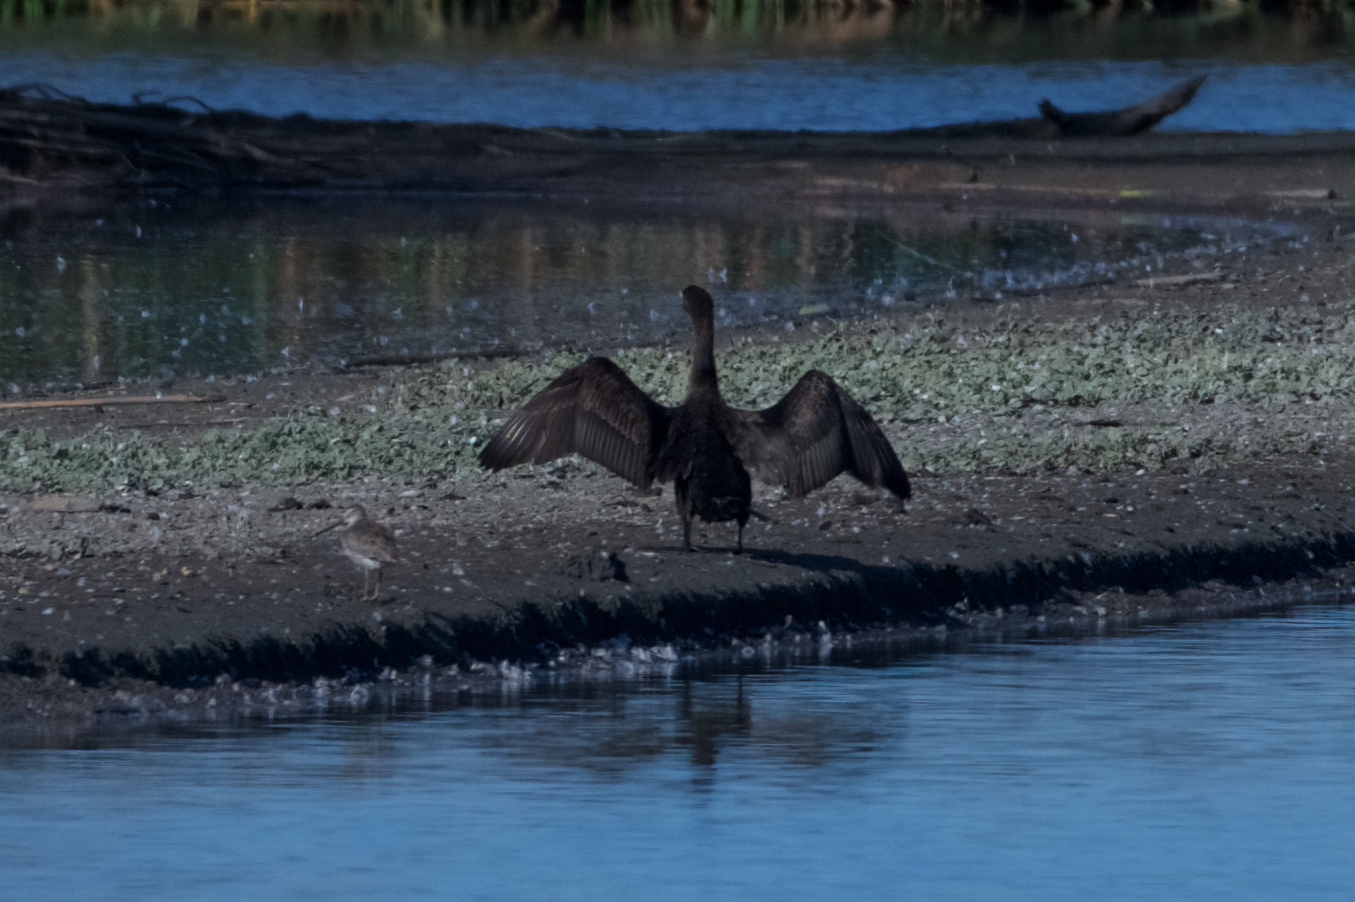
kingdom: Animalia
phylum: Chordata
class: Aves
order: Suliformes
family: Phalacrocoracidae
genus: Phalacrocorax
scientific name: Phalacrocorax auritus
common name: Double-crested cormorant
